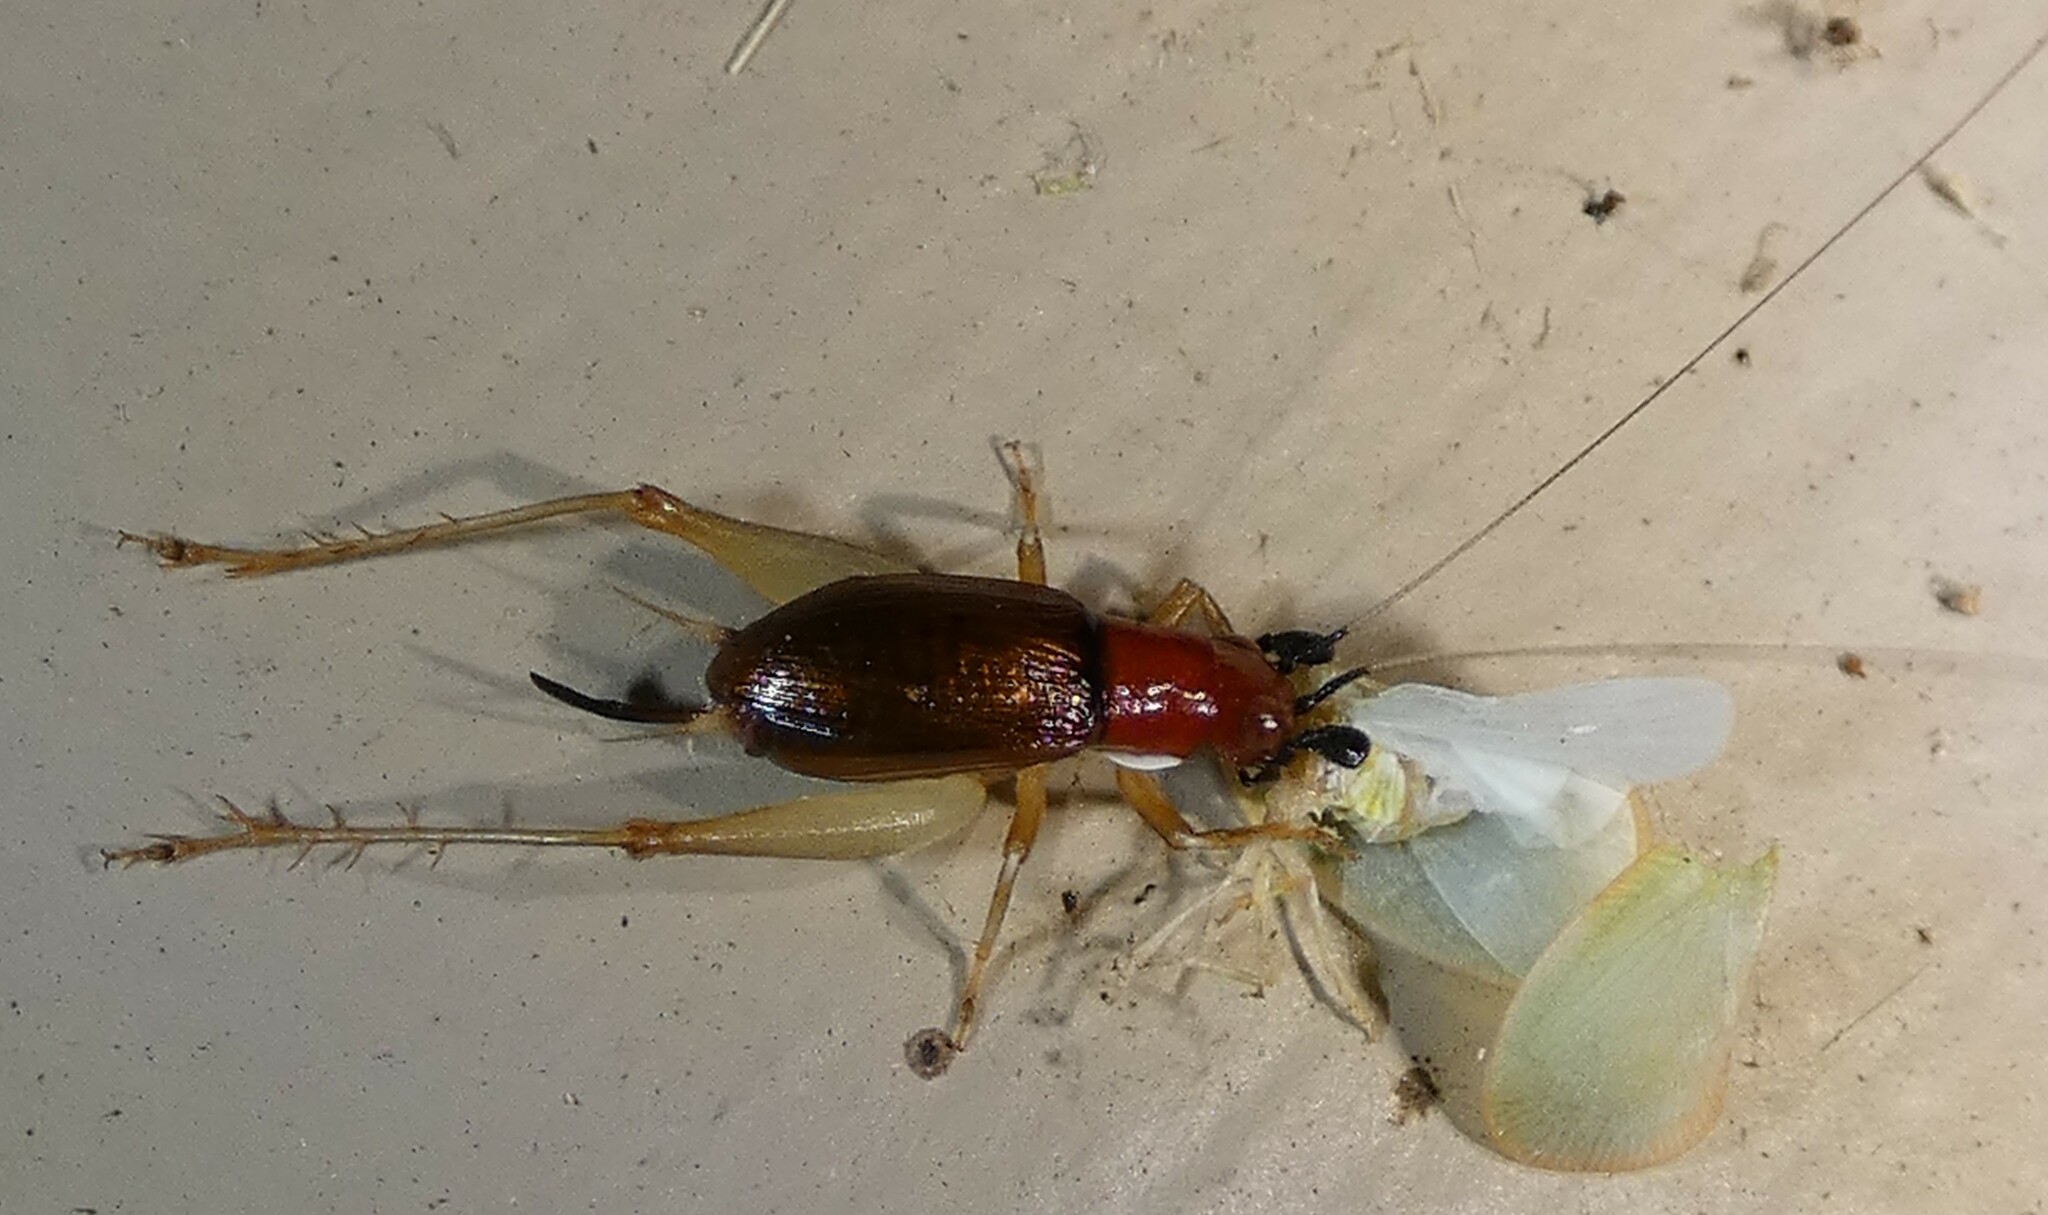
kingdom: Animalia
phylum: Arthropoda
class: Insecta
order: Orthoptera
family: Trigonidiidae
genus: Phyllopalpus
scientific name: Phyllopalpus pulchellus
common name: Handsome trig
